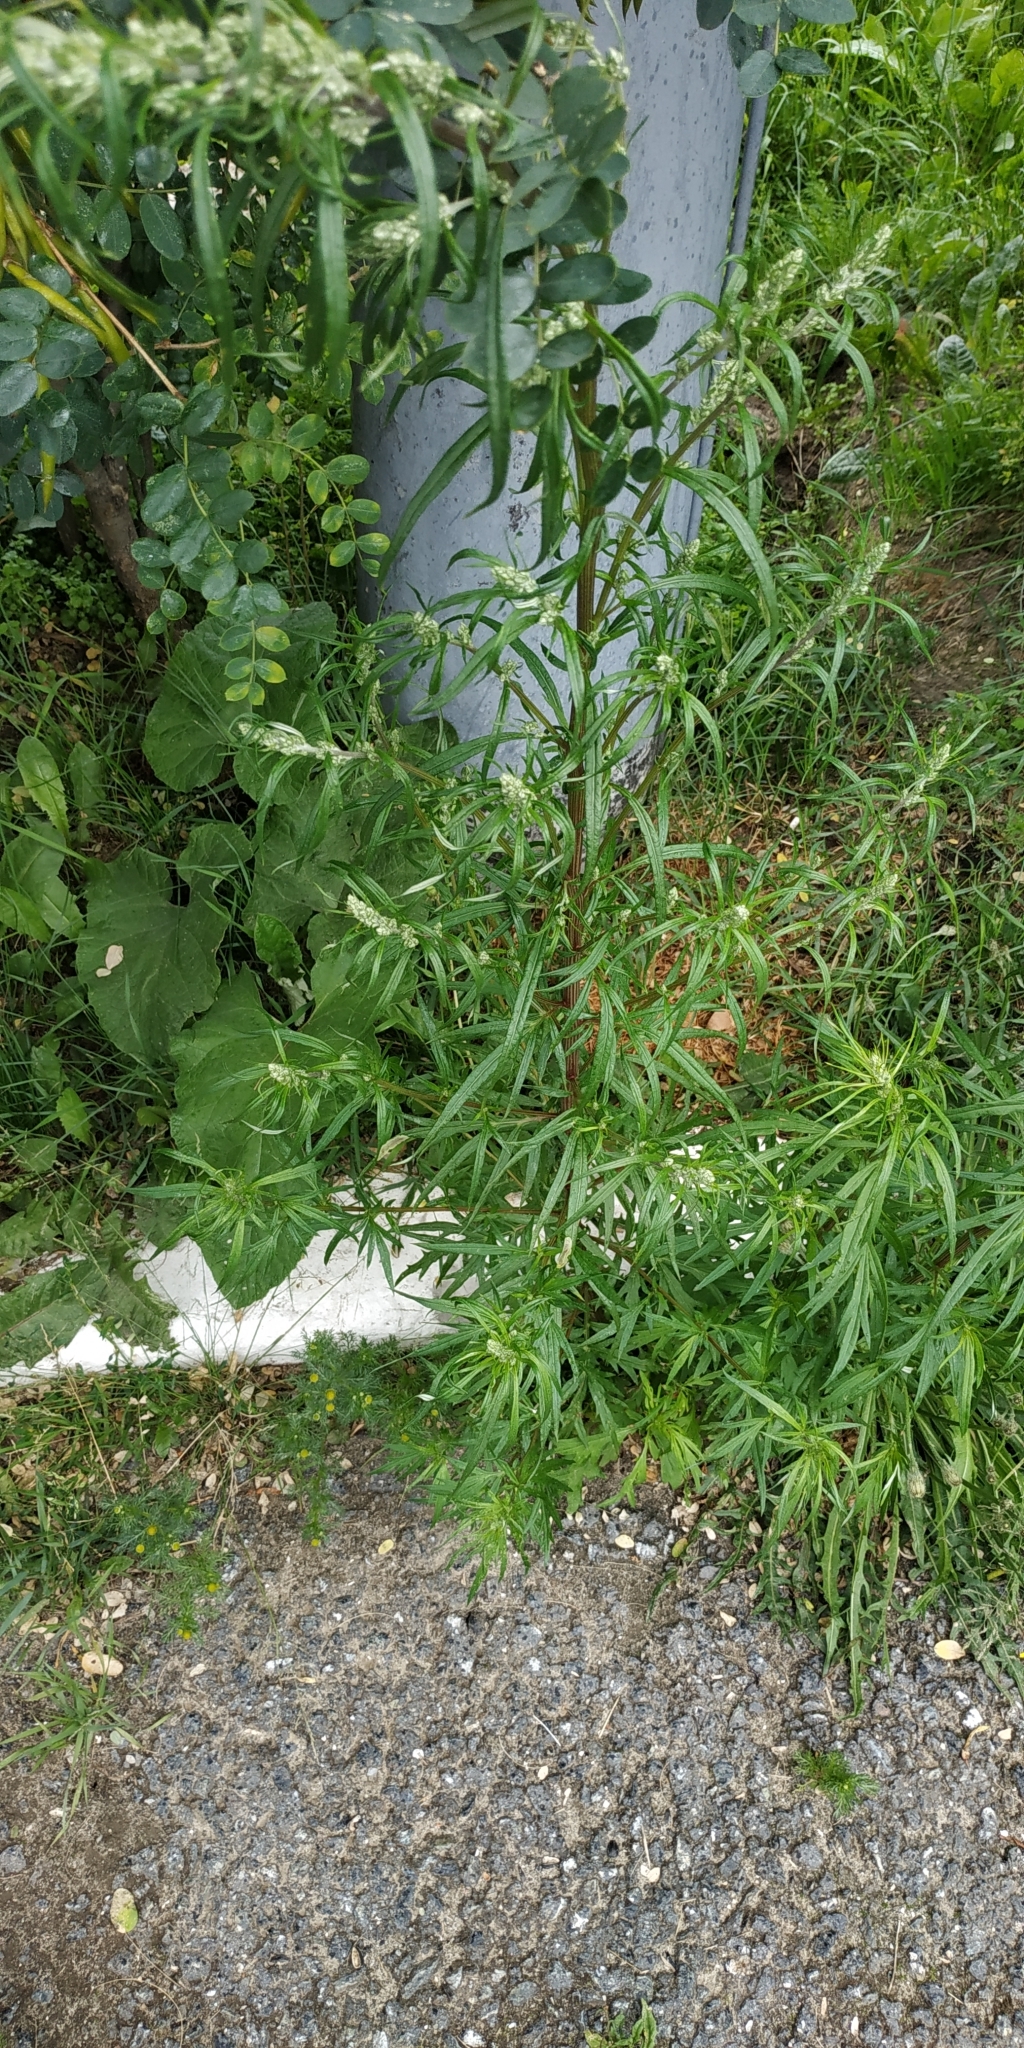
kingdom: Plantae
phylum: Tracheophyta
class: Magnoliopsida
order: Asterales
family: Asteraceae
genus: Artemisia
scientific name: Artemisia vulgaris
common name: Mugwort
